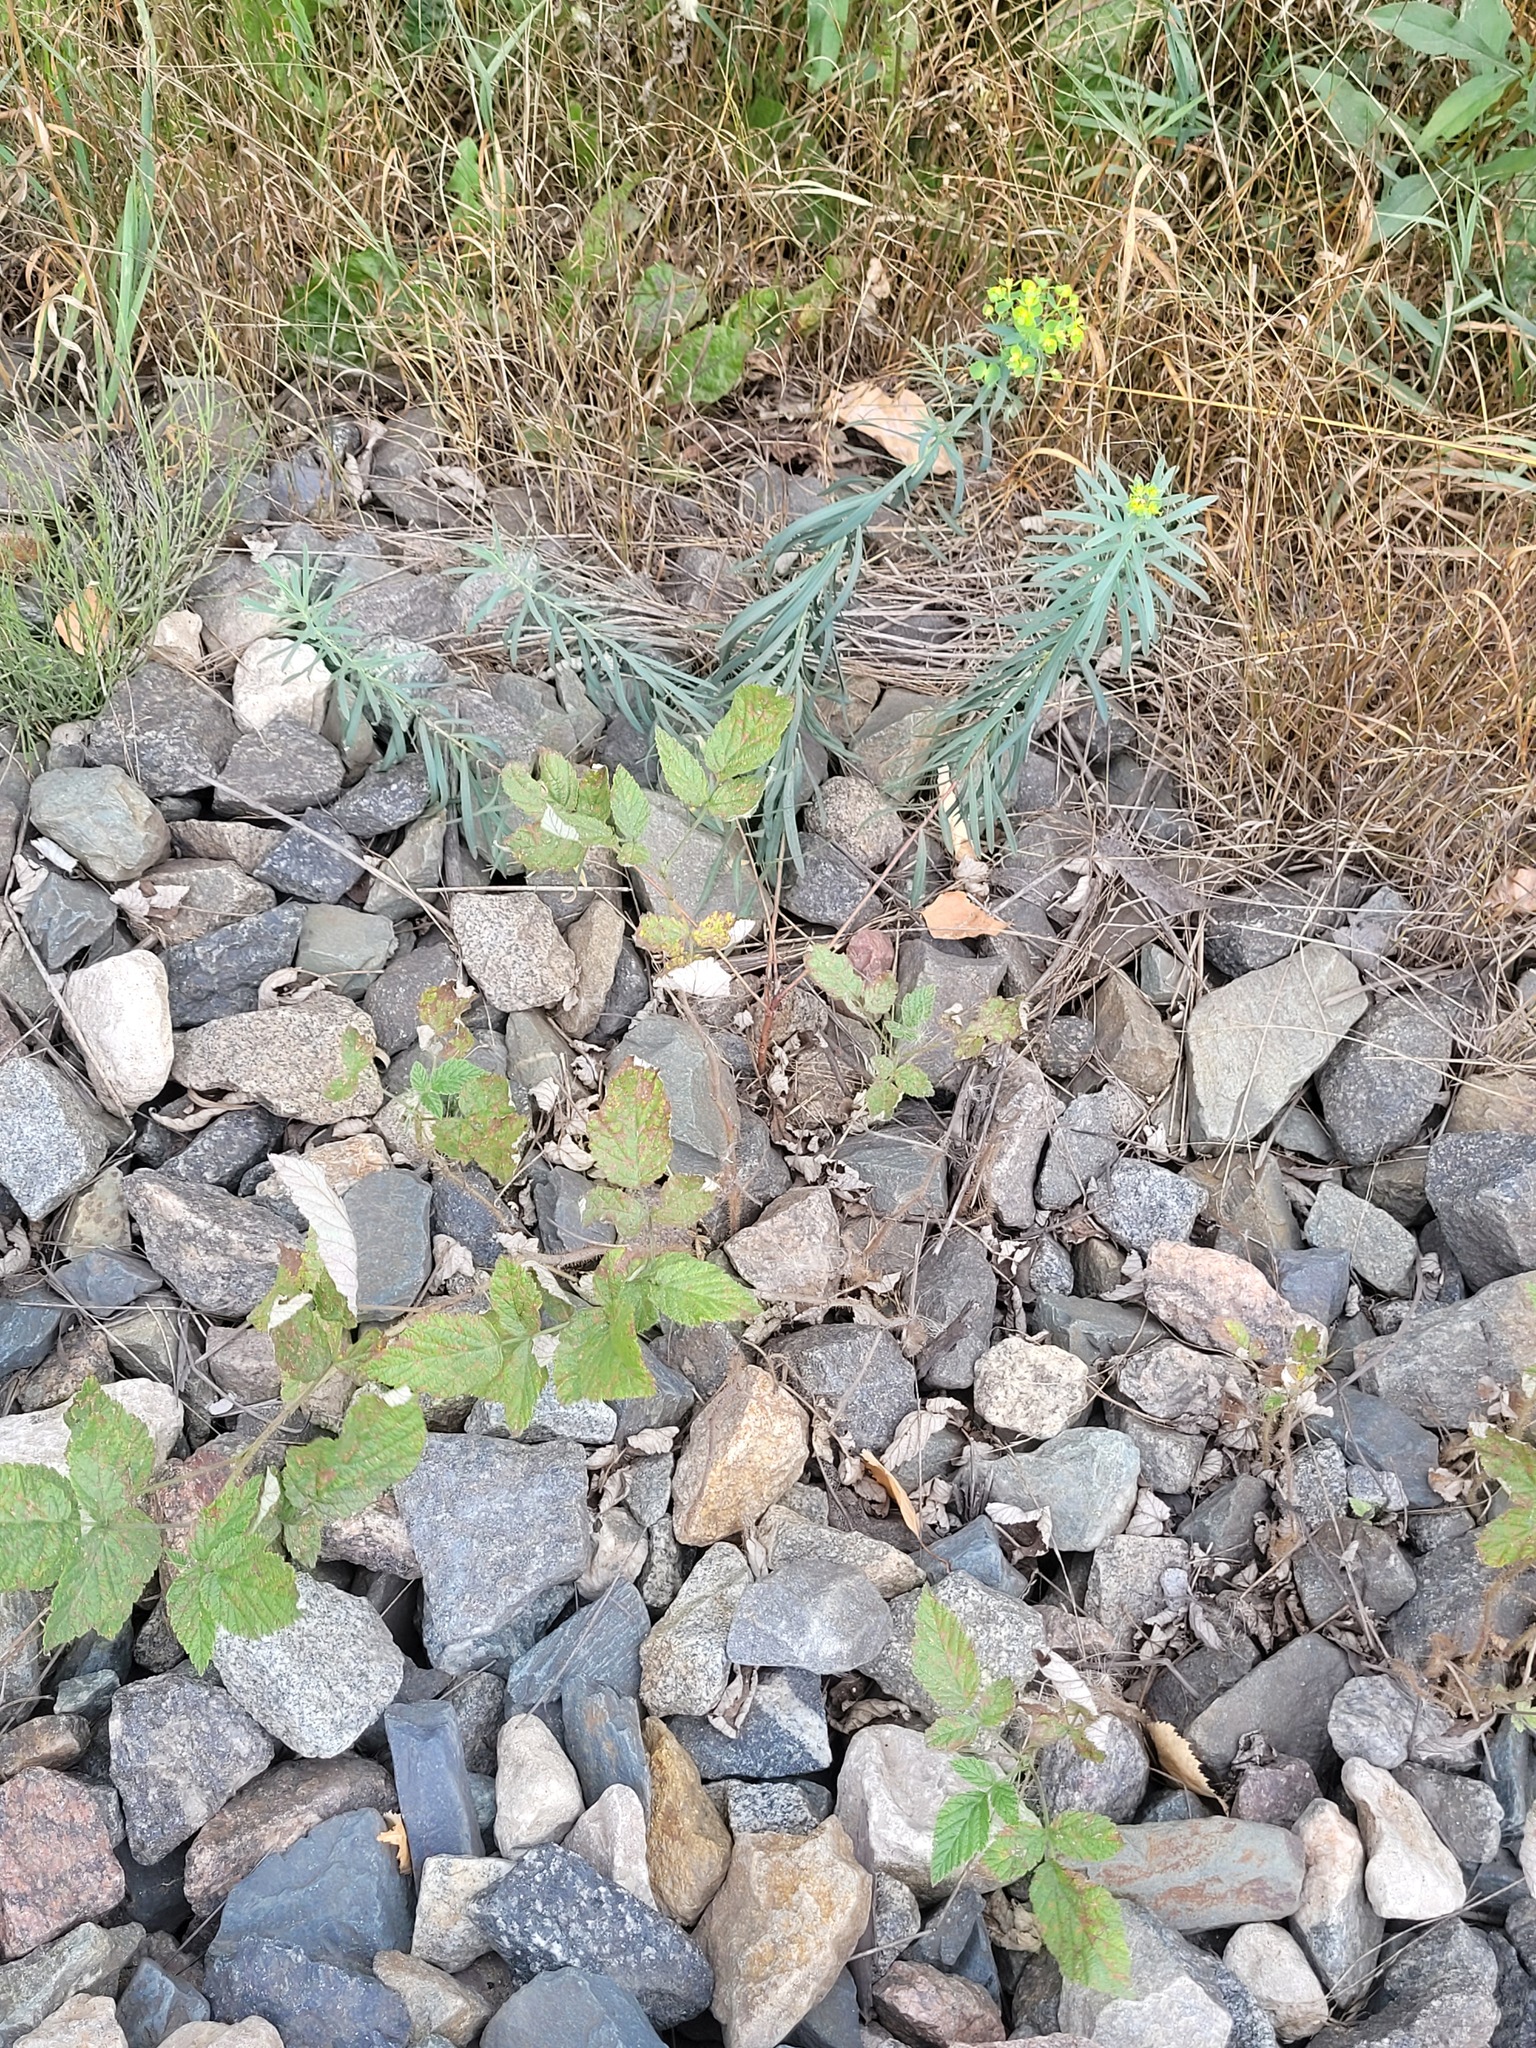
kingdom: Plantae
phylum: Tracheophyta
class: Magnoliopsida
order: Rosales
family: Rosaceae
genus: Rubus
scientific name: Rubus idaeus
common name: Raspberry
